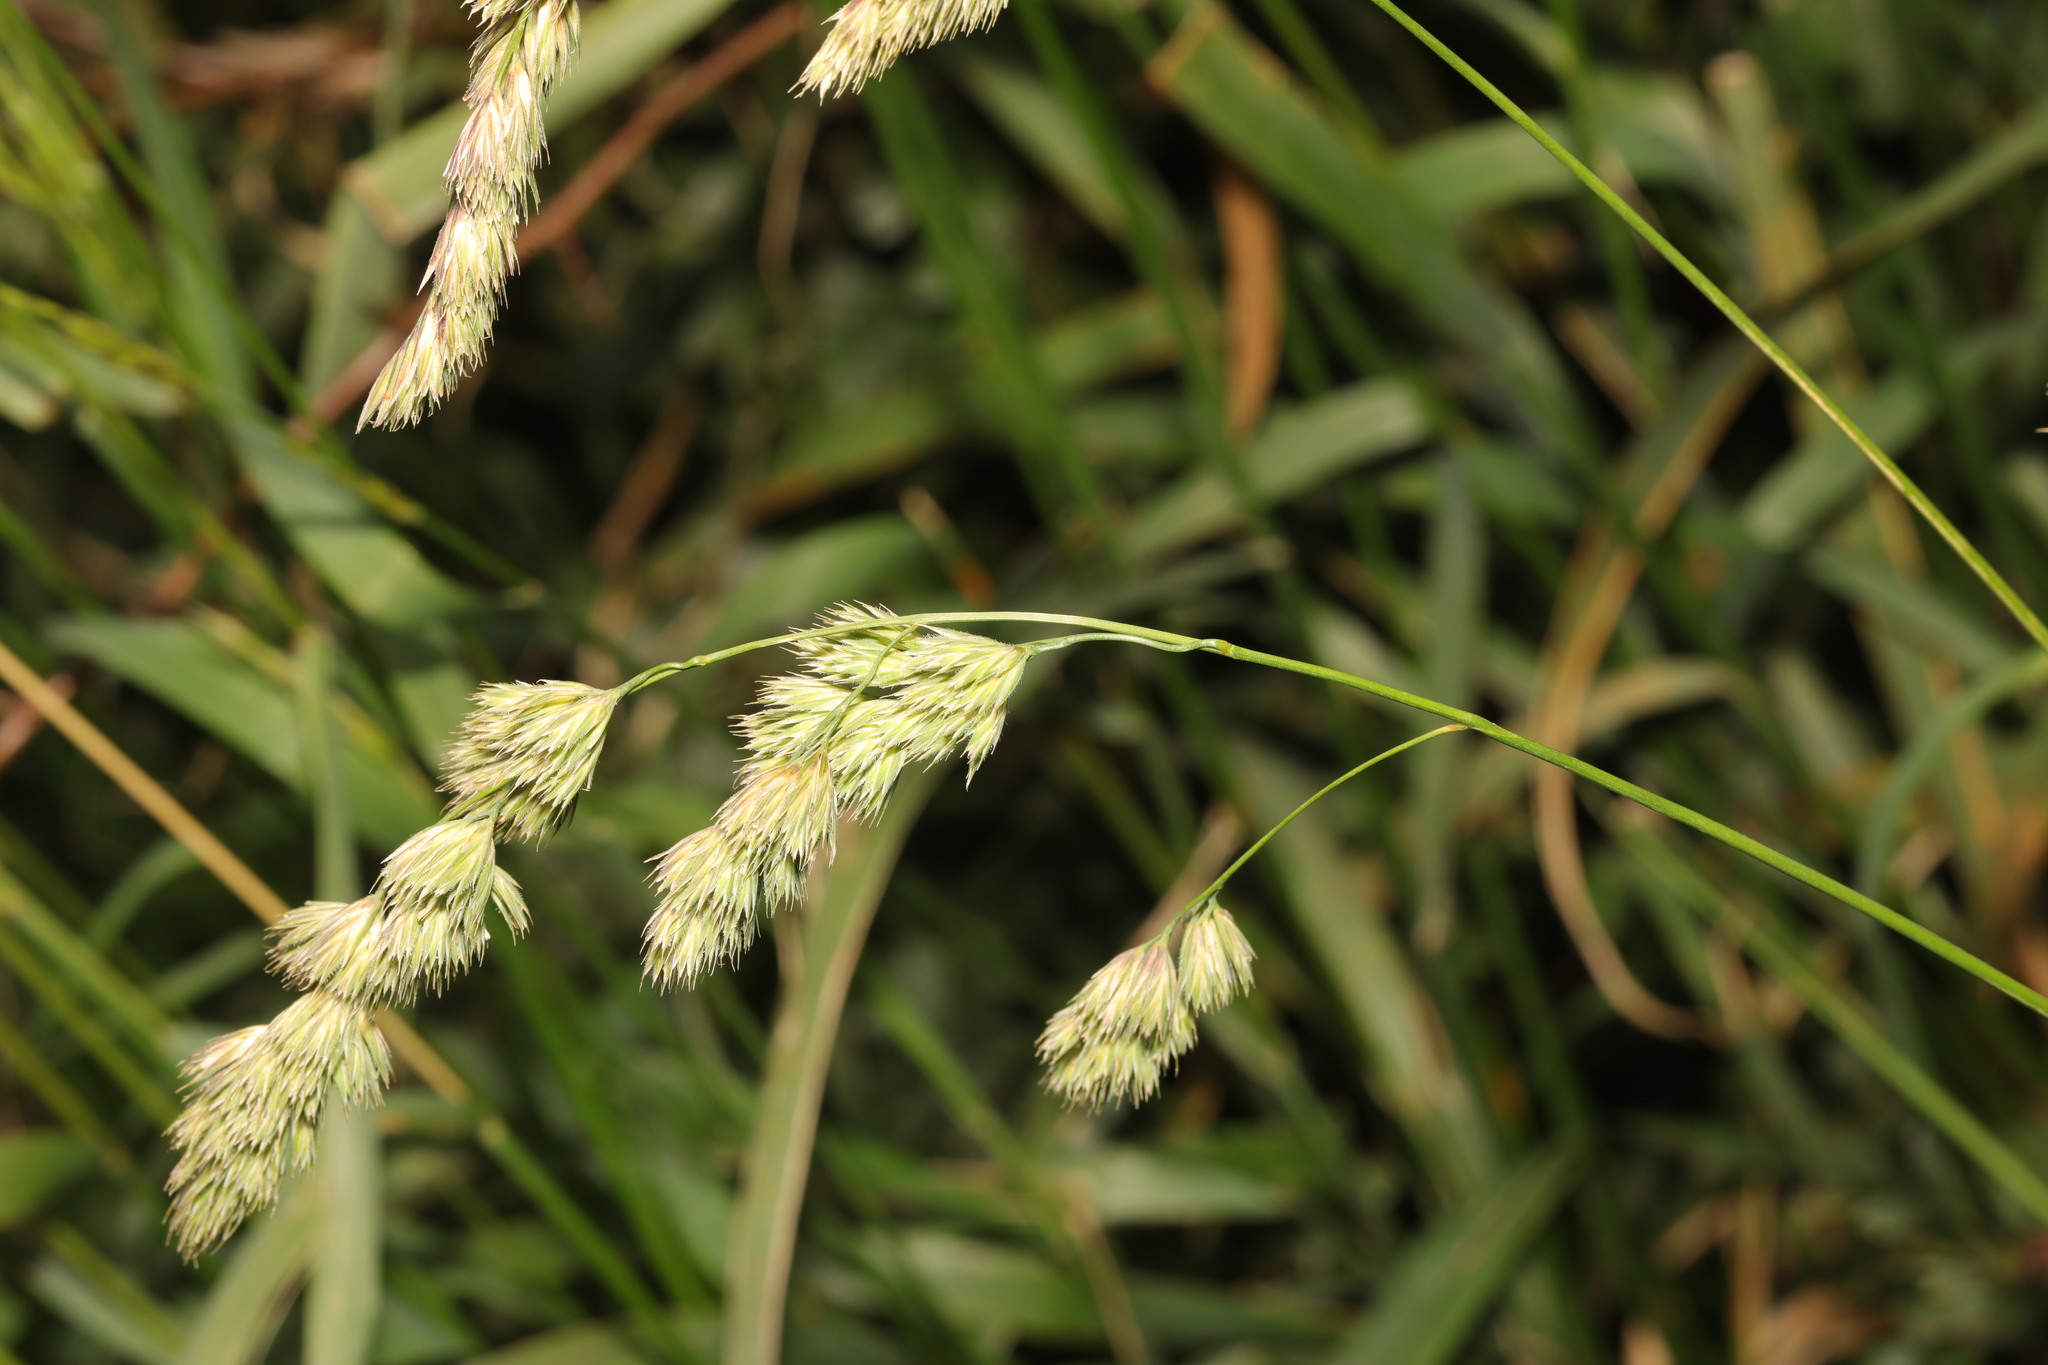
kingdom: Plantae
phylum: Tracheophyta
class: Liliopsida
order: Poales
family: Poaceae
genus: Dactylis
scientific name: Dactylis glomerata
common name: Orchardgrass
